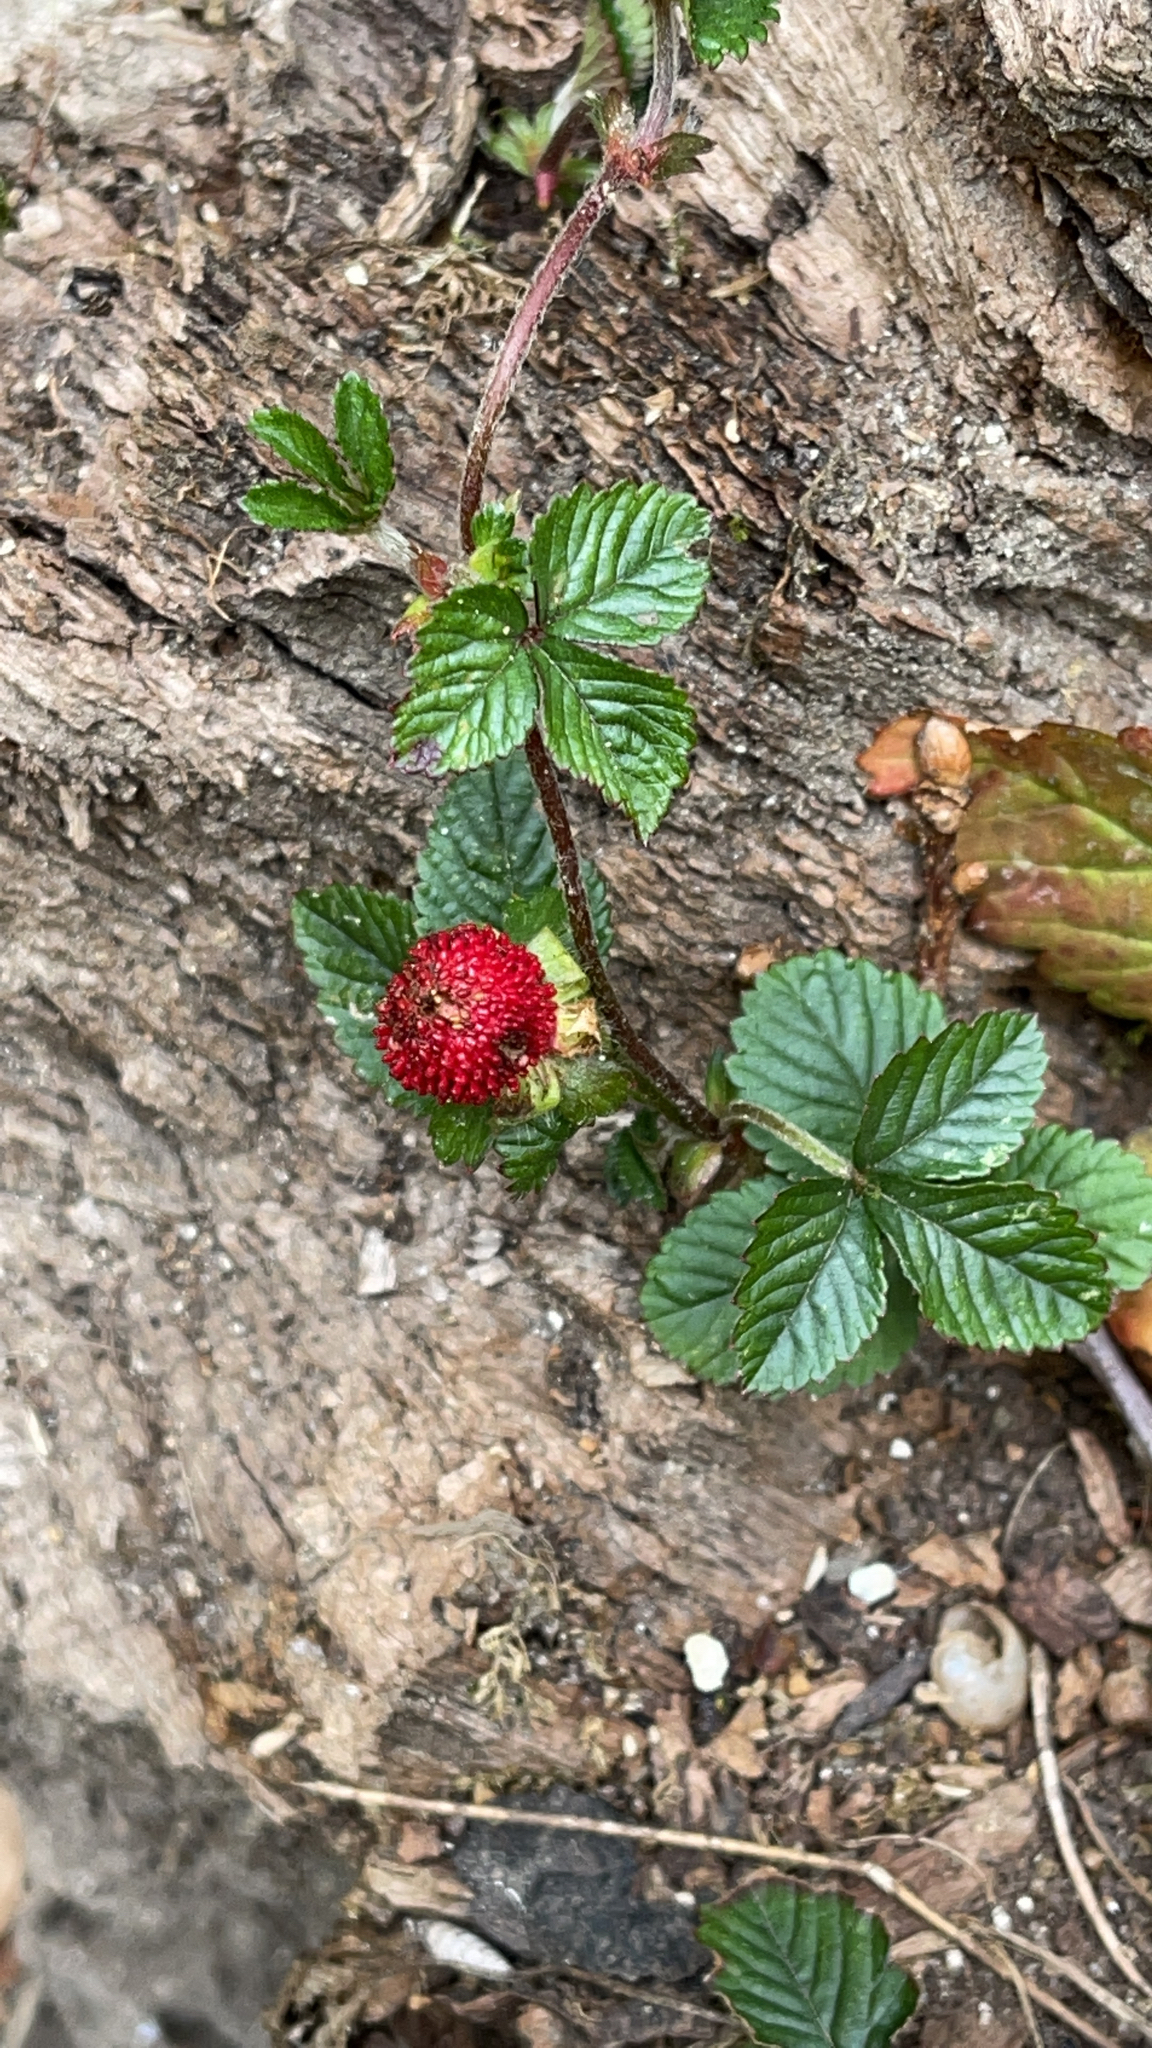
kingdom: Plantae
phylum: Tracheophyta
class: Magnoliopsida
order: Rosales
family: Rosaceae
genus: Potentilla
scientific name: Potentilla indica
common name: Yellow-flowered strawberry
